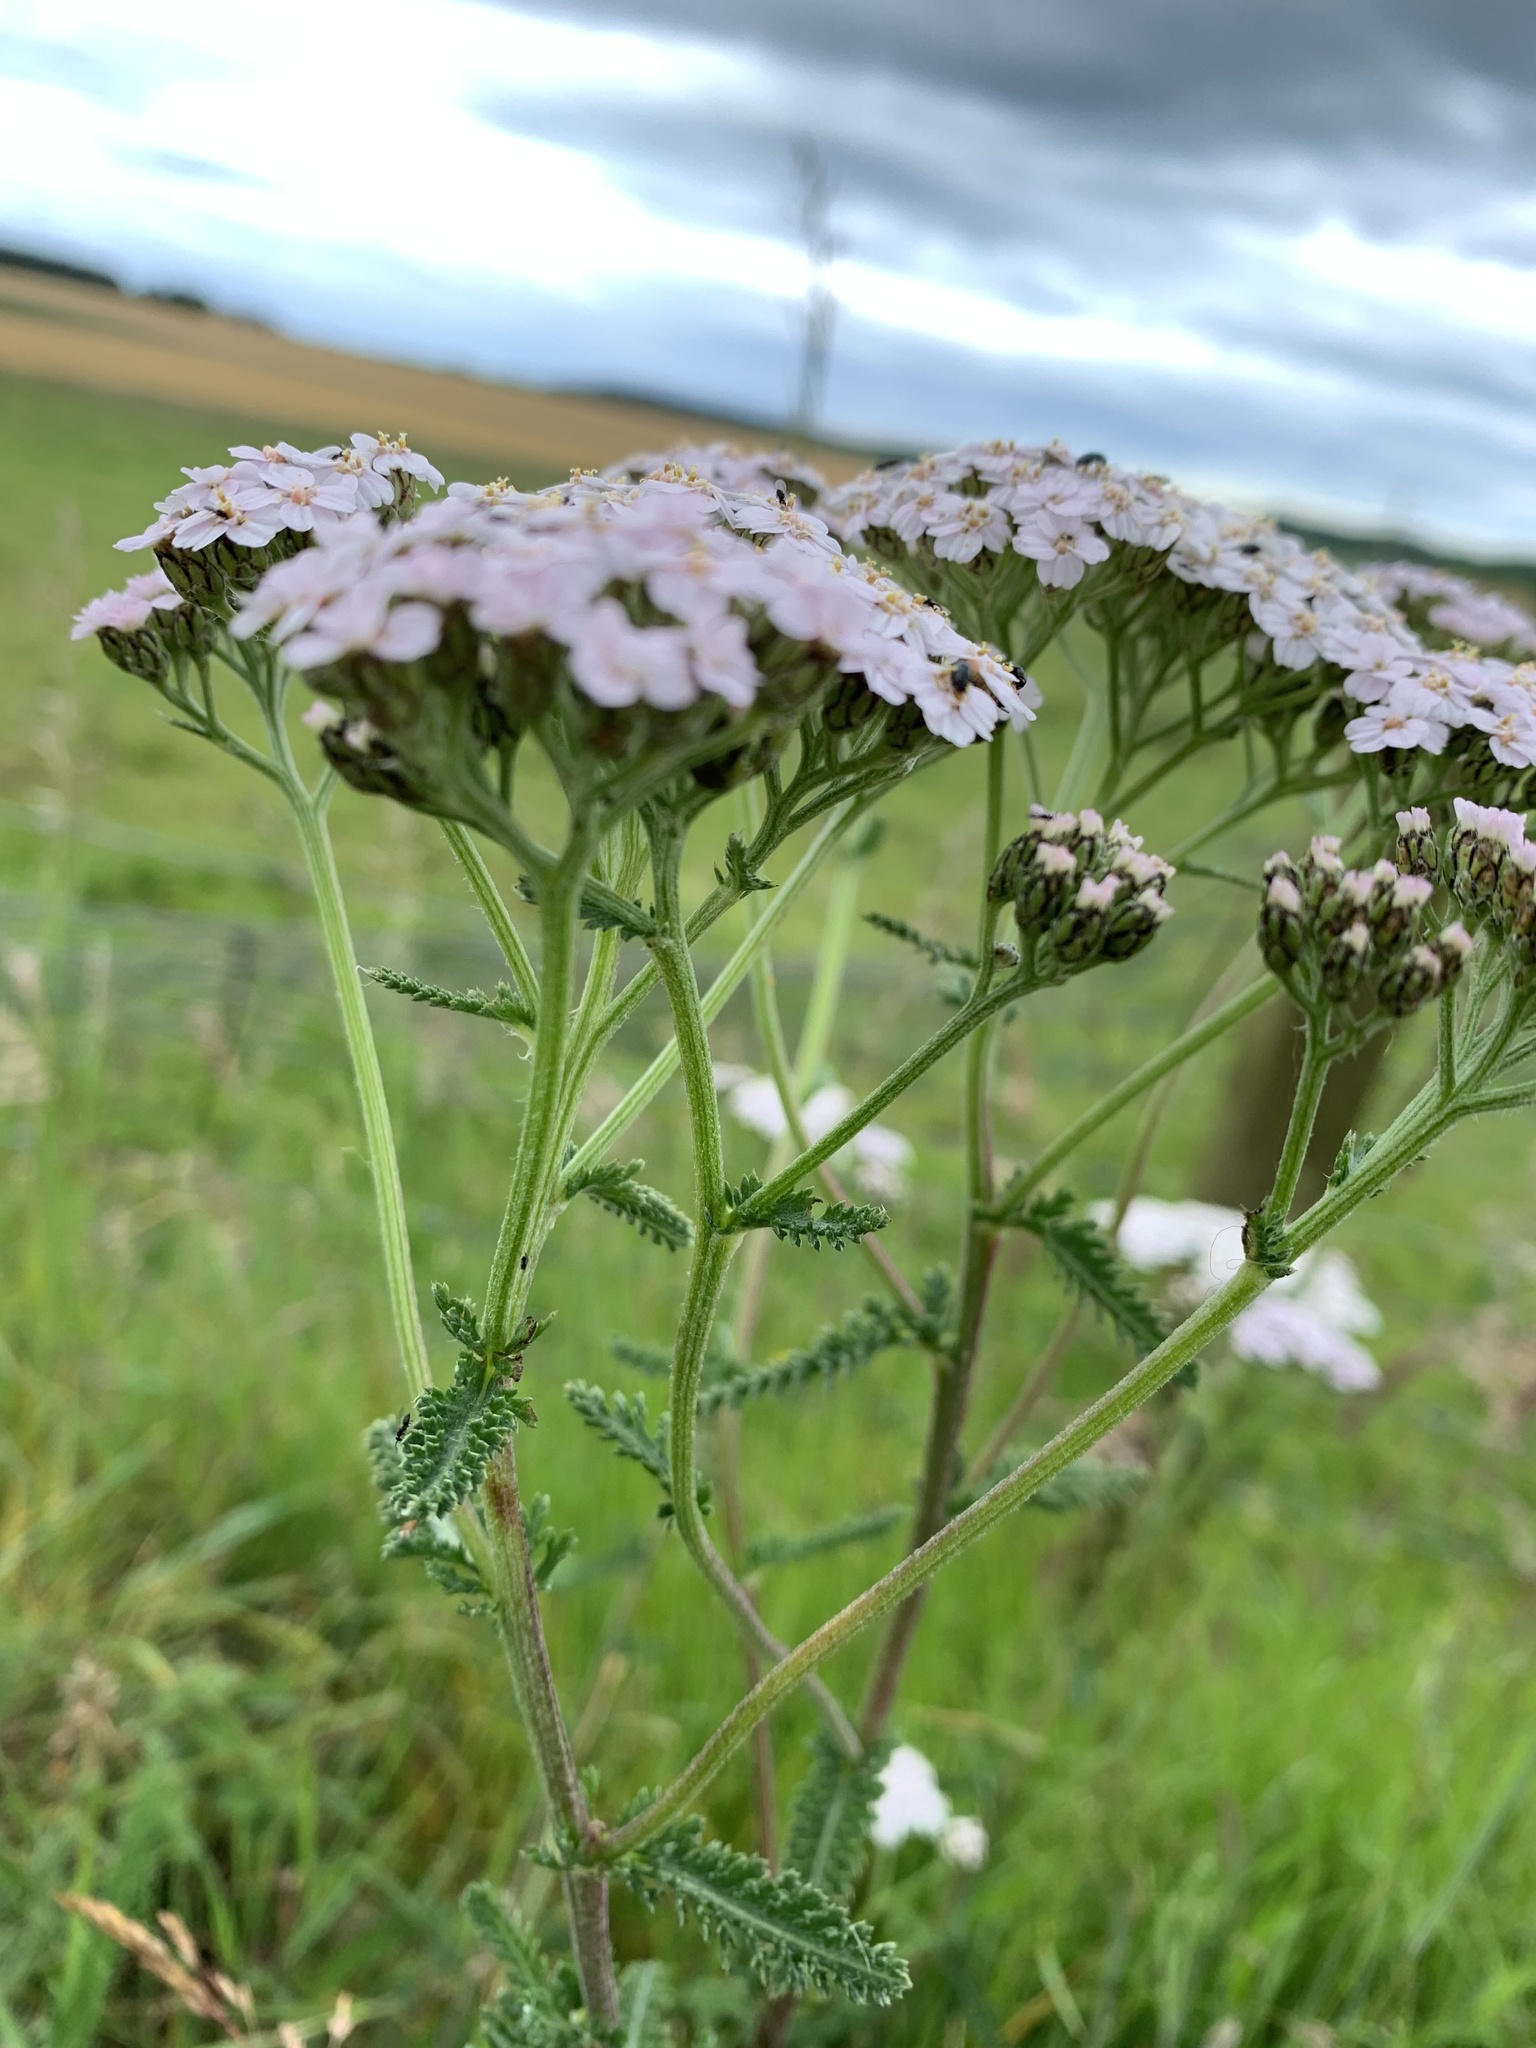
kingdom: Plantae
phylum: Tracheophyta
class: Magnoliopsida
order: Asterales
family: Asteraceae
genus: Achillea
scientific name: Achillea millefolium
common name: Yarrow
